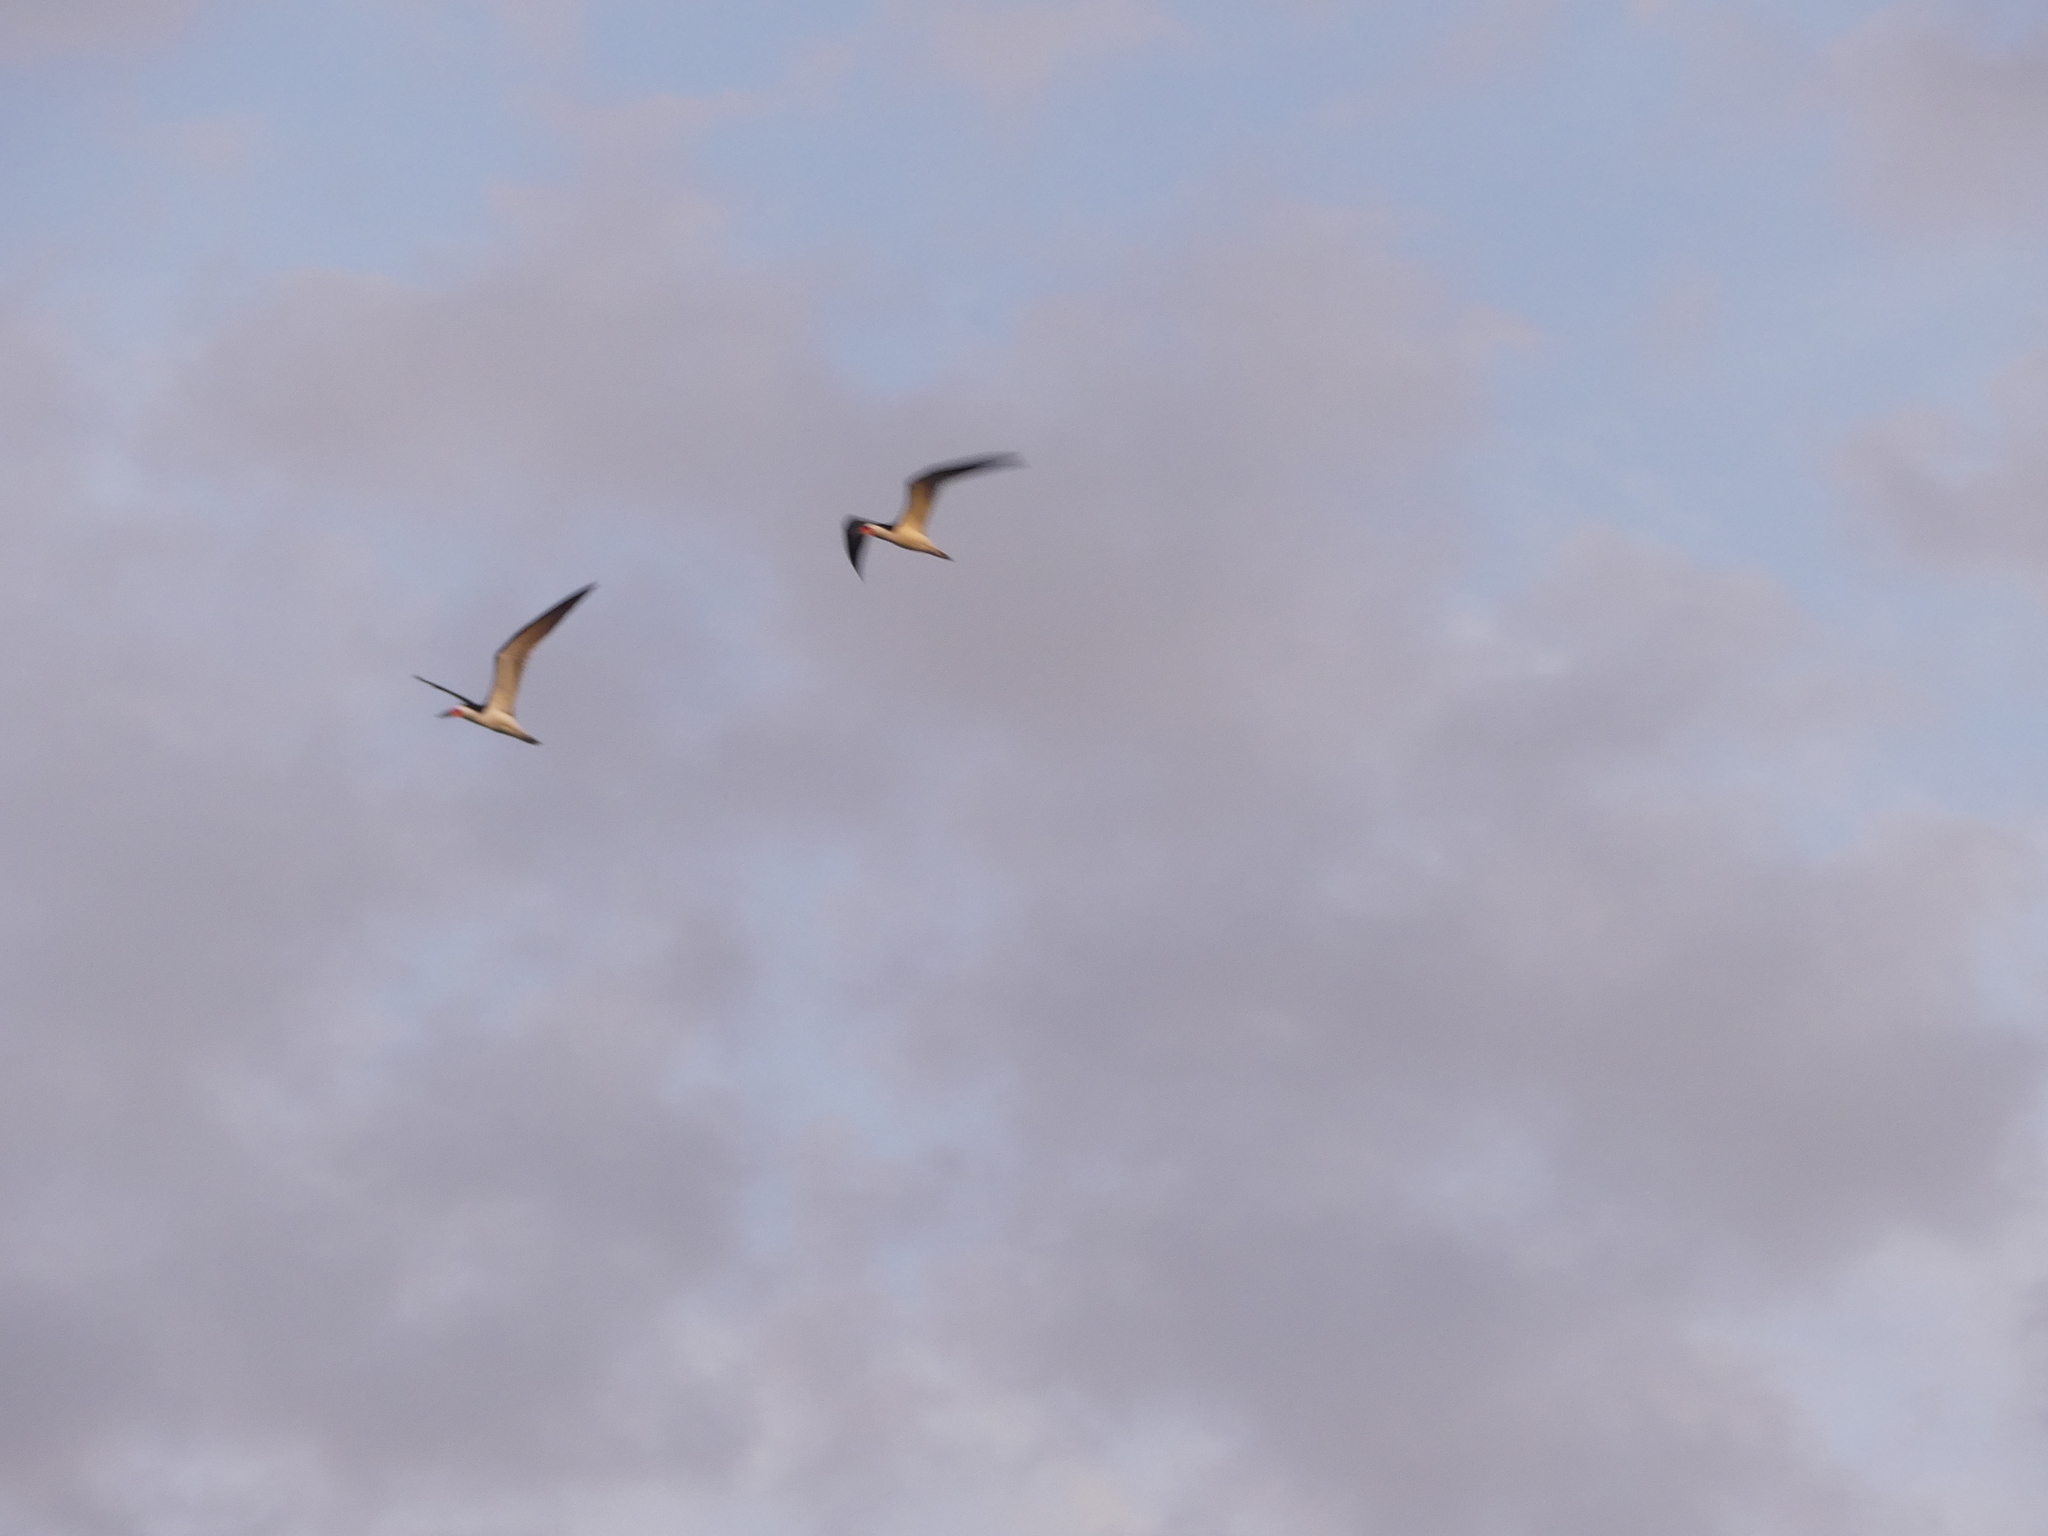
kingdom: Animalia
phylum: Chordata
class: Aves
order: Charadriiformes
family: Laridae
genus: Rynchops
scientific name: Rynchops niger
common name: Black skimmer
